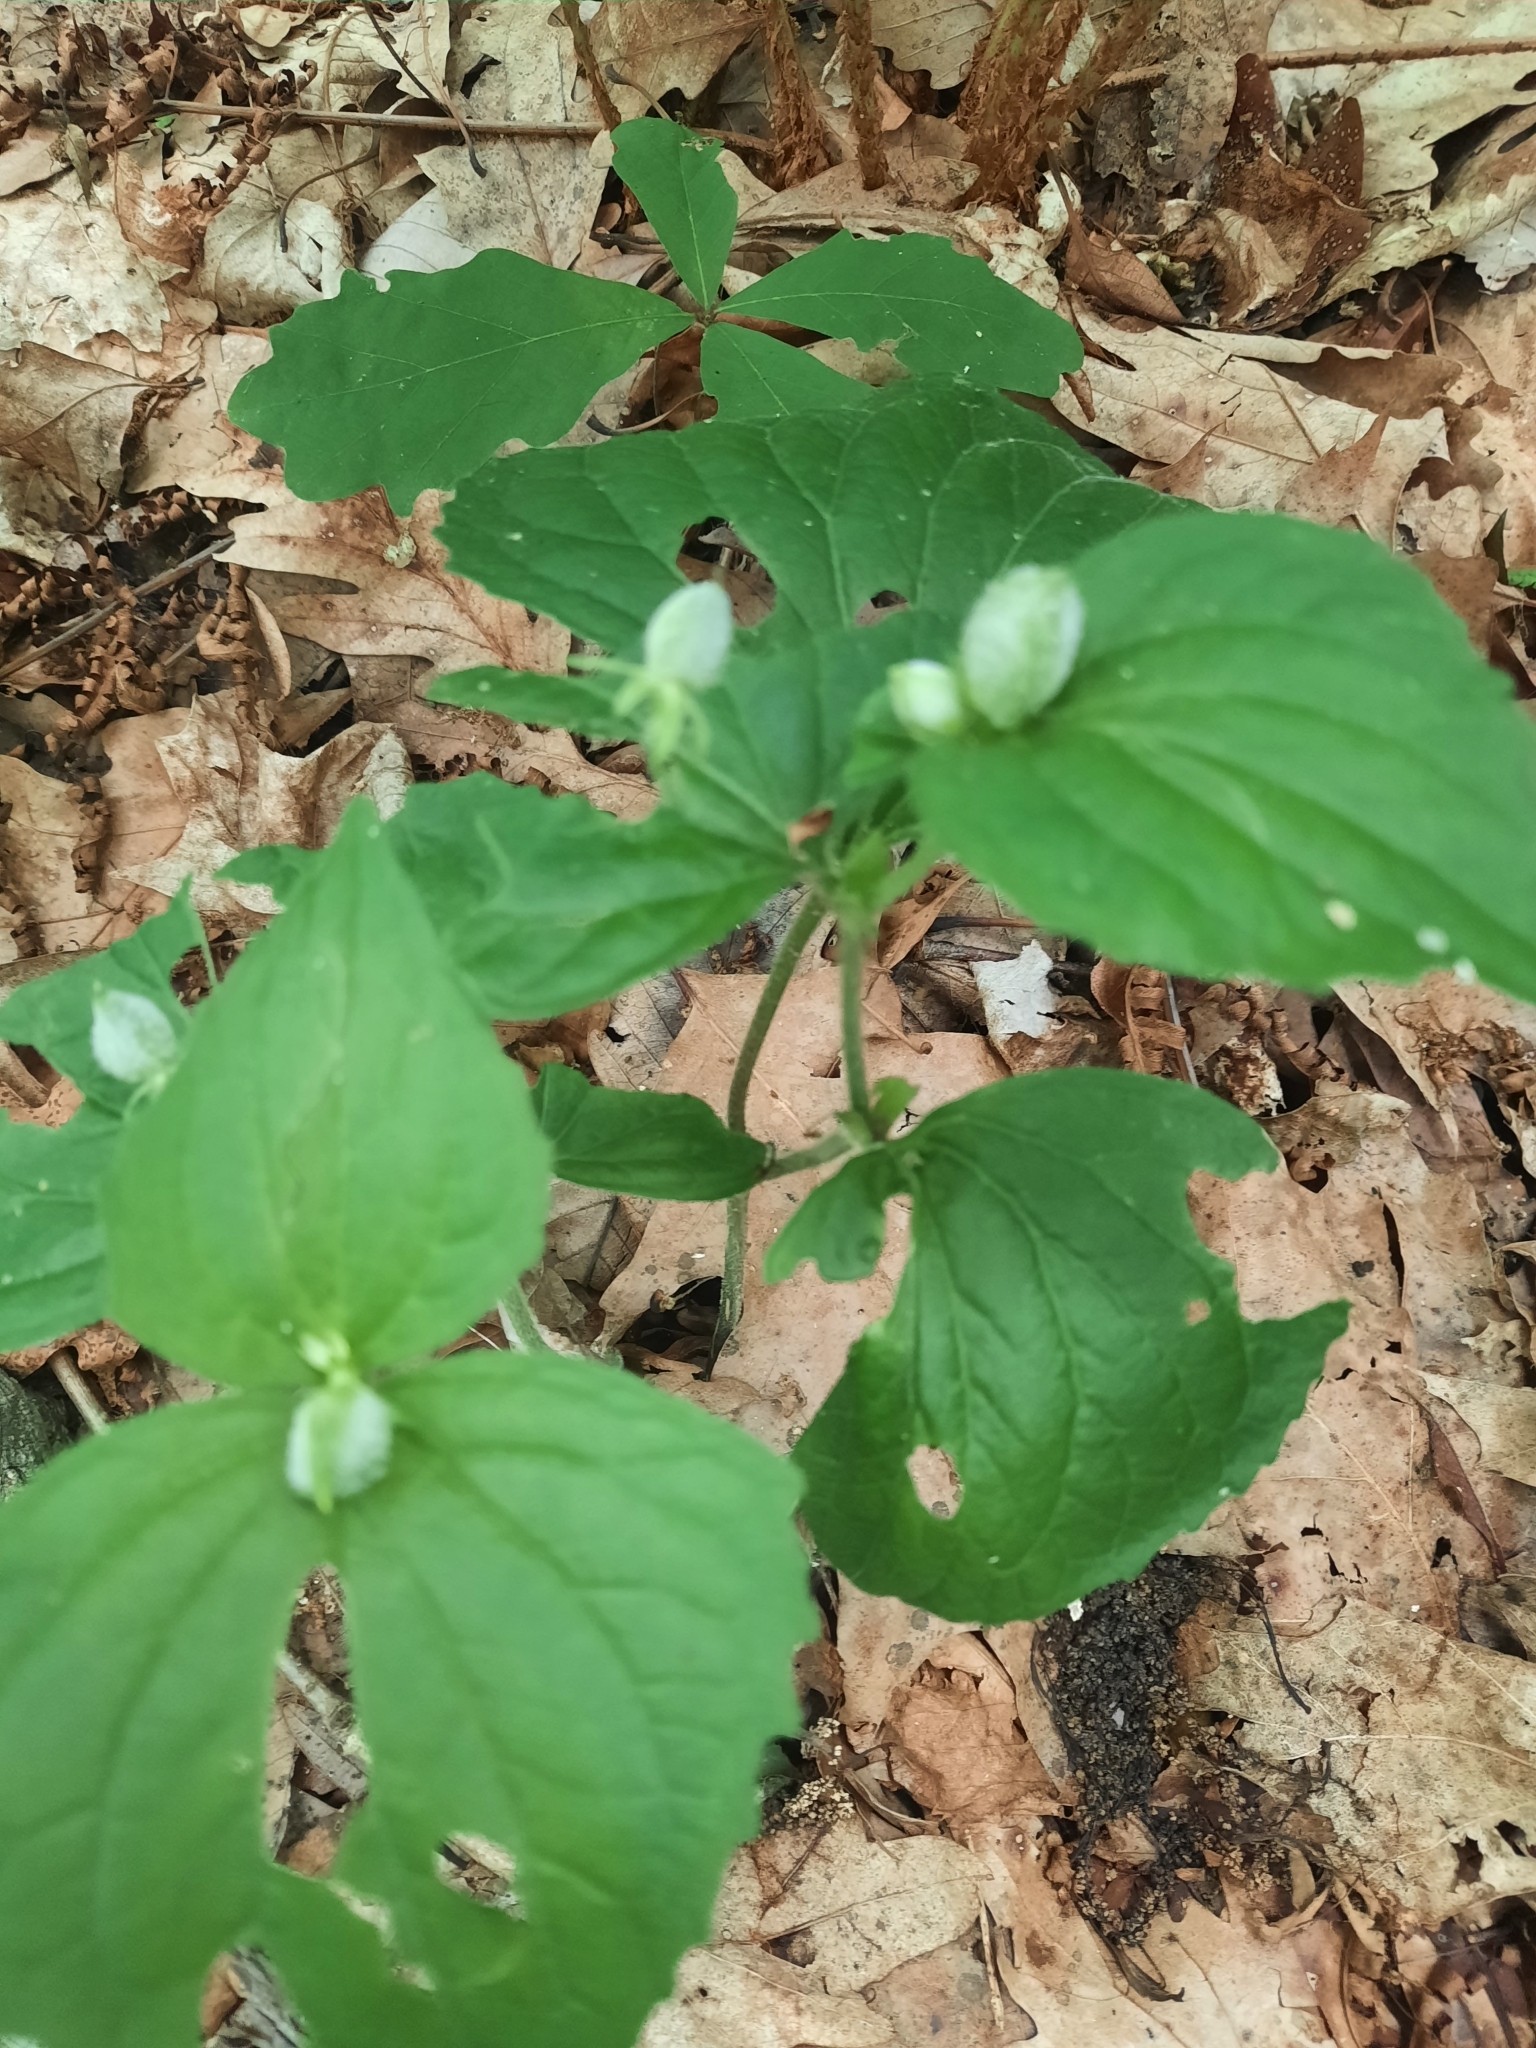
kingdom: Plantae
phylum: Tracheophyta
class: Magnoliopsida
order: Malpighiales
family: Violaceae
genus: Viola
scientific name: Viola eriocarpa
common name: Smooth yellow violet
